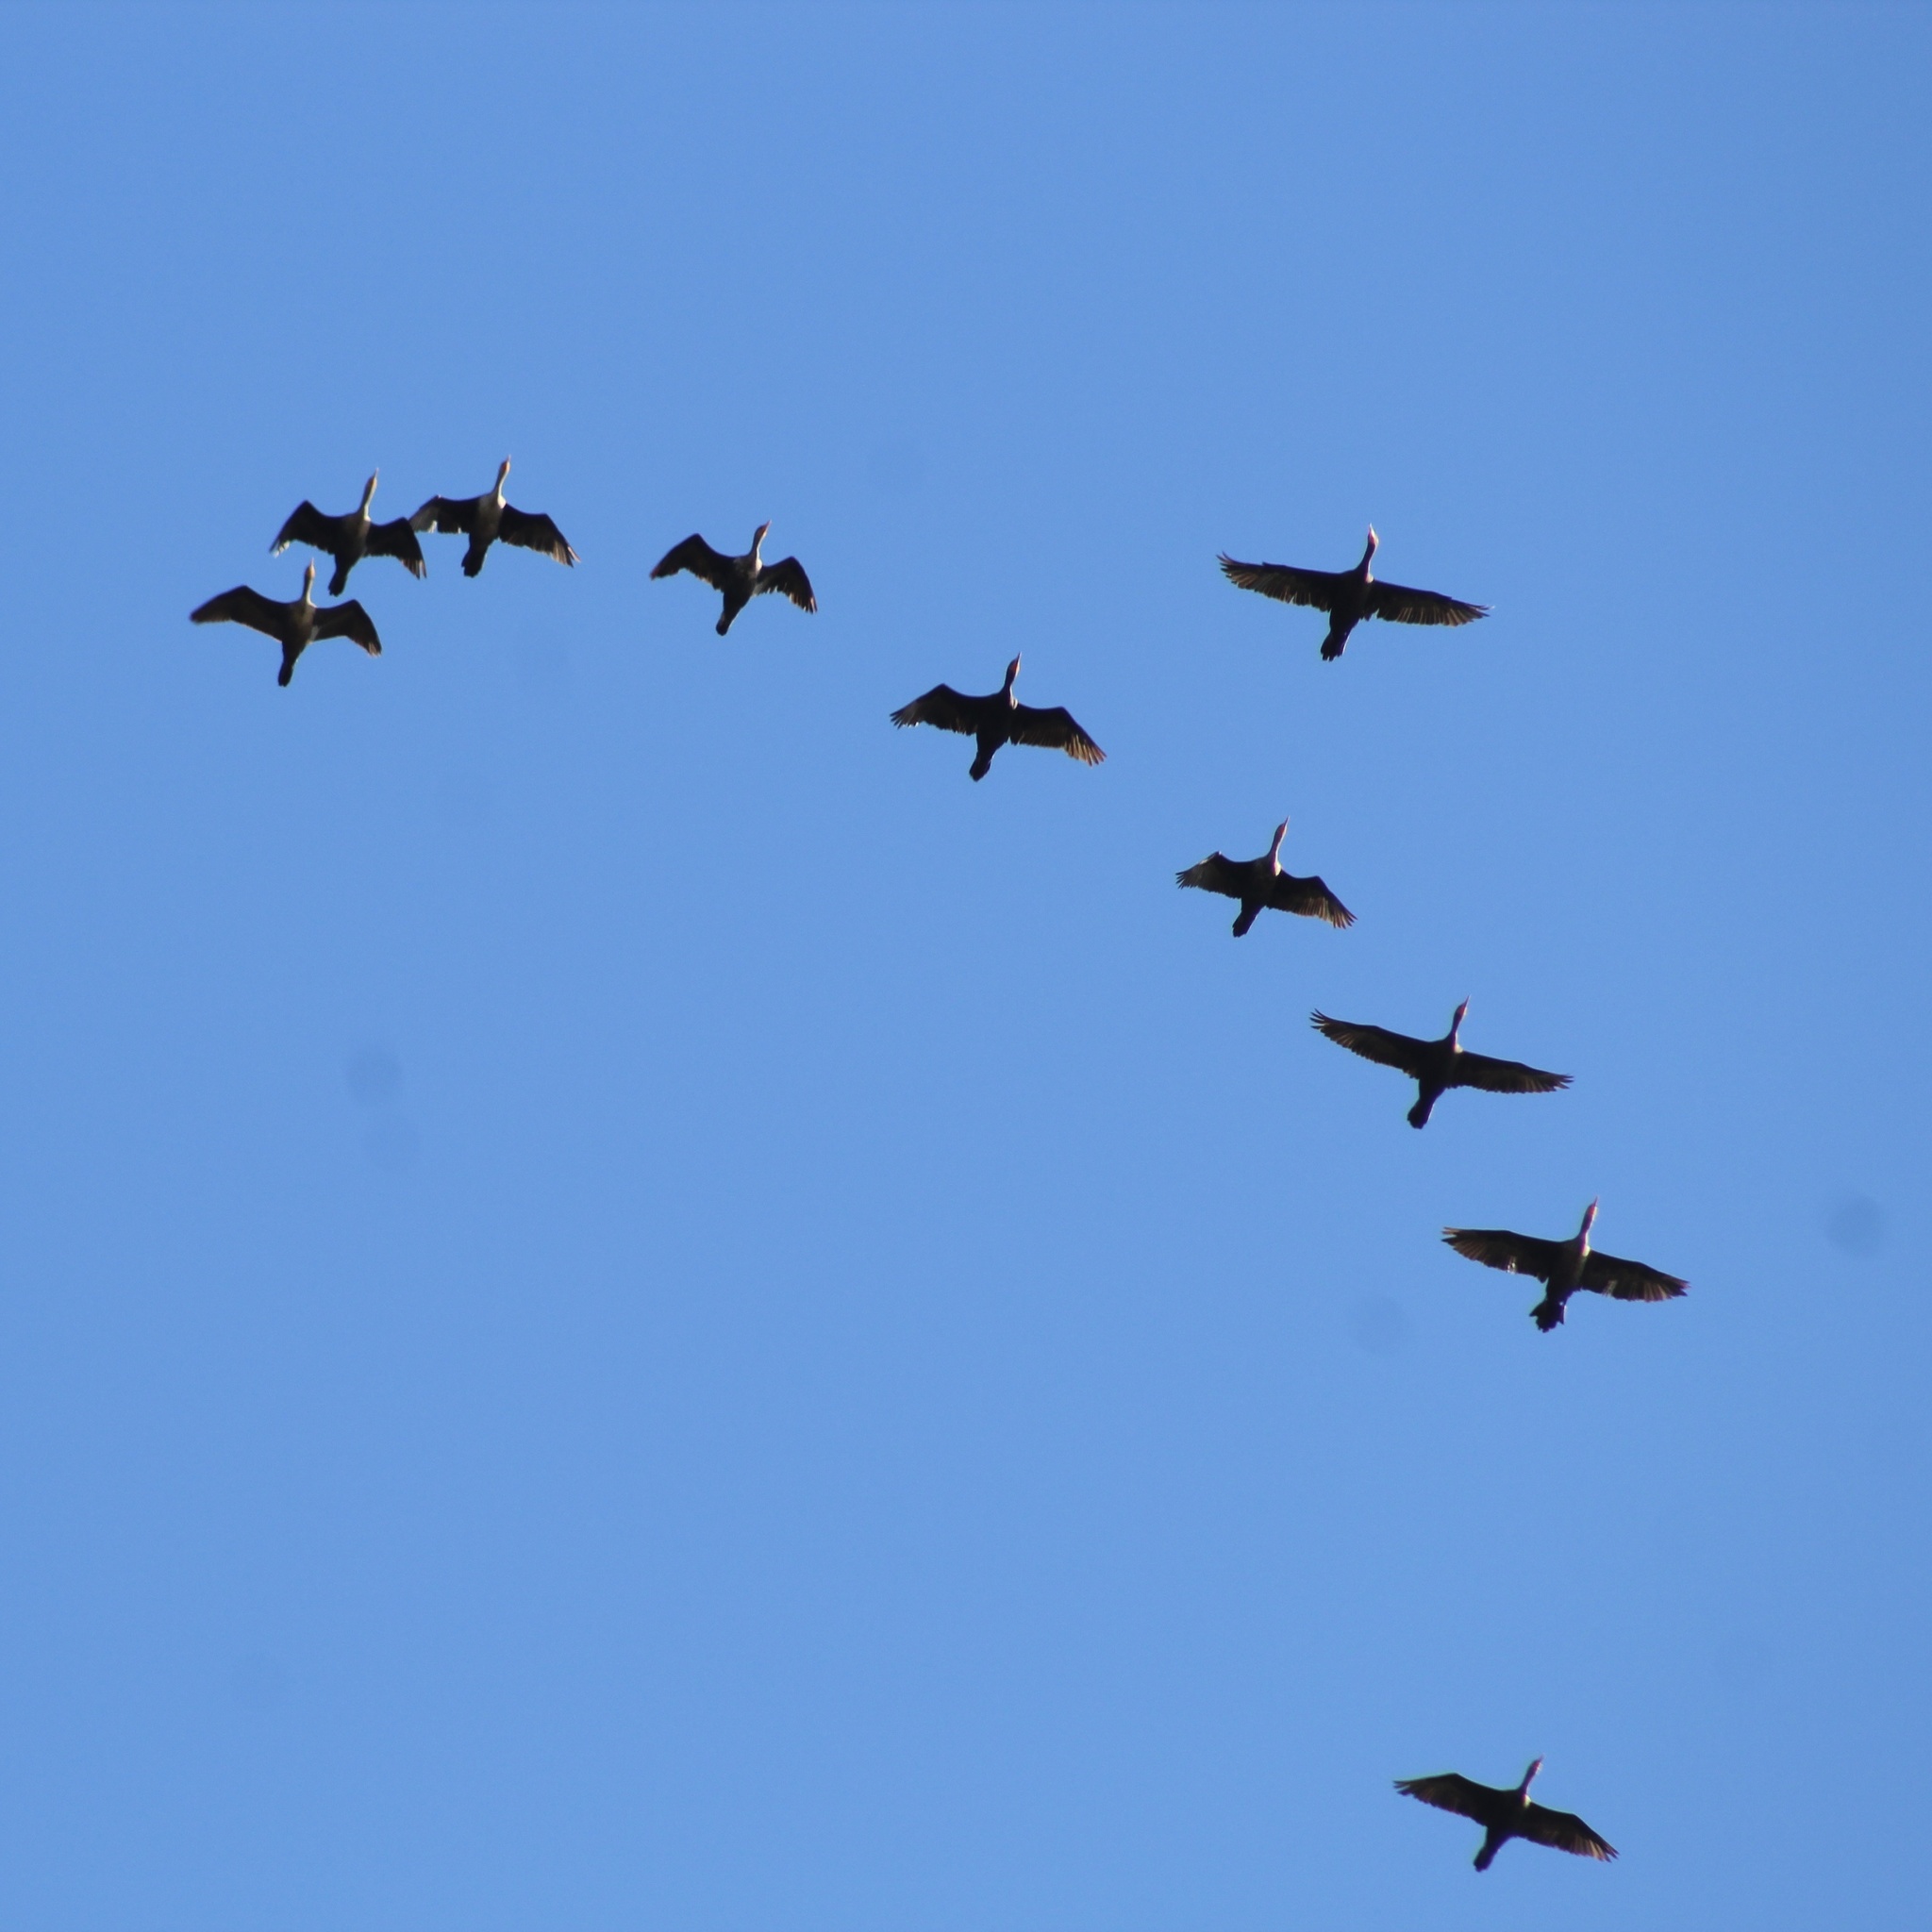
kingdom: Animalia
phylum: Chordata
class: Aves
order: Suliformes
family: Phalacrocoracidae
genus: Phalacrocorax
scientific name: Phalacrocorax auritus
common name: Double-crested cormorant
